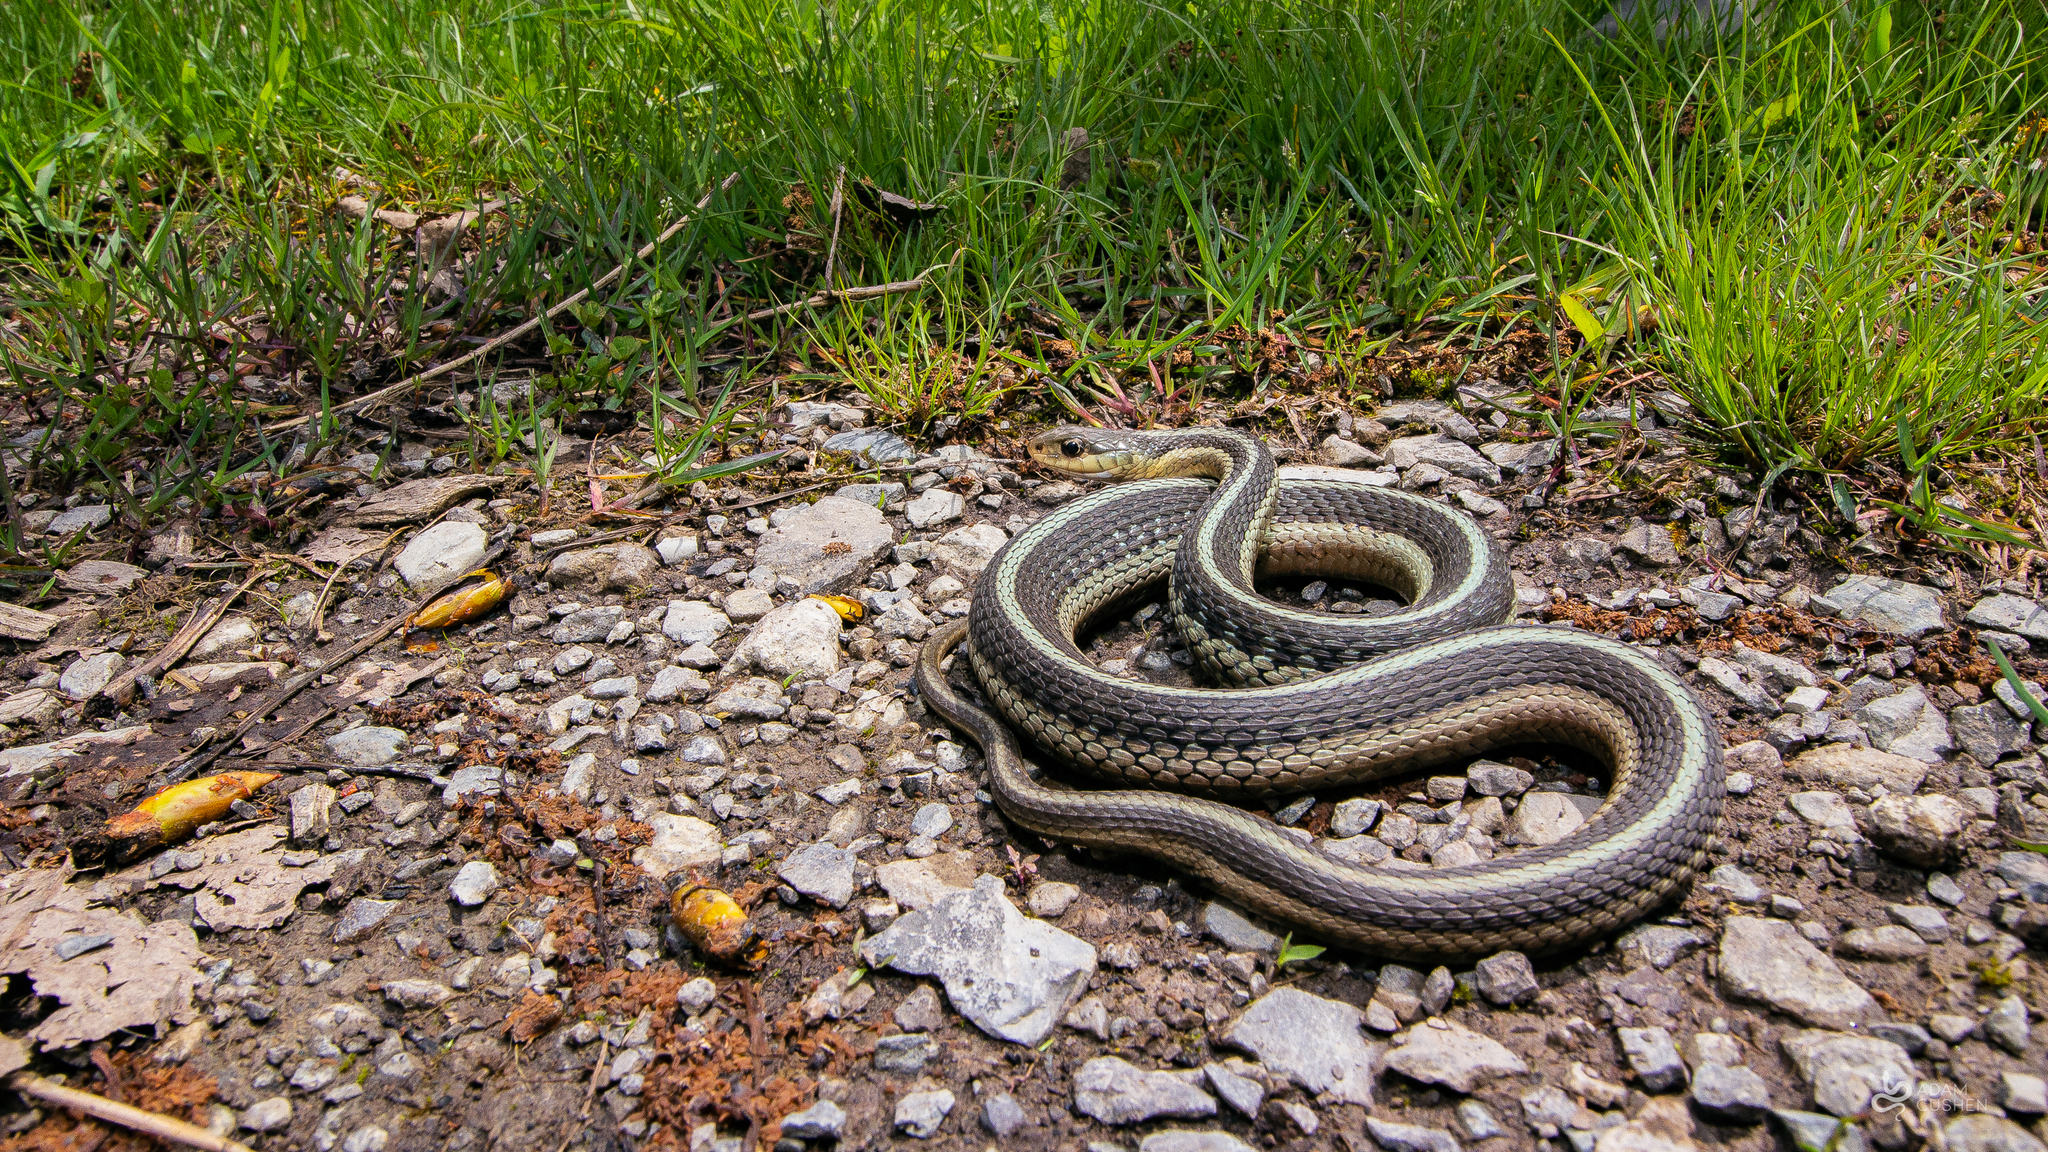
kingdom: Animalia
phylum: Chordata
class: Squamata
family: Colubridae
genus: Thamnophis
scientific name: Thamnophis sirtalis
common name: Common garter snake
